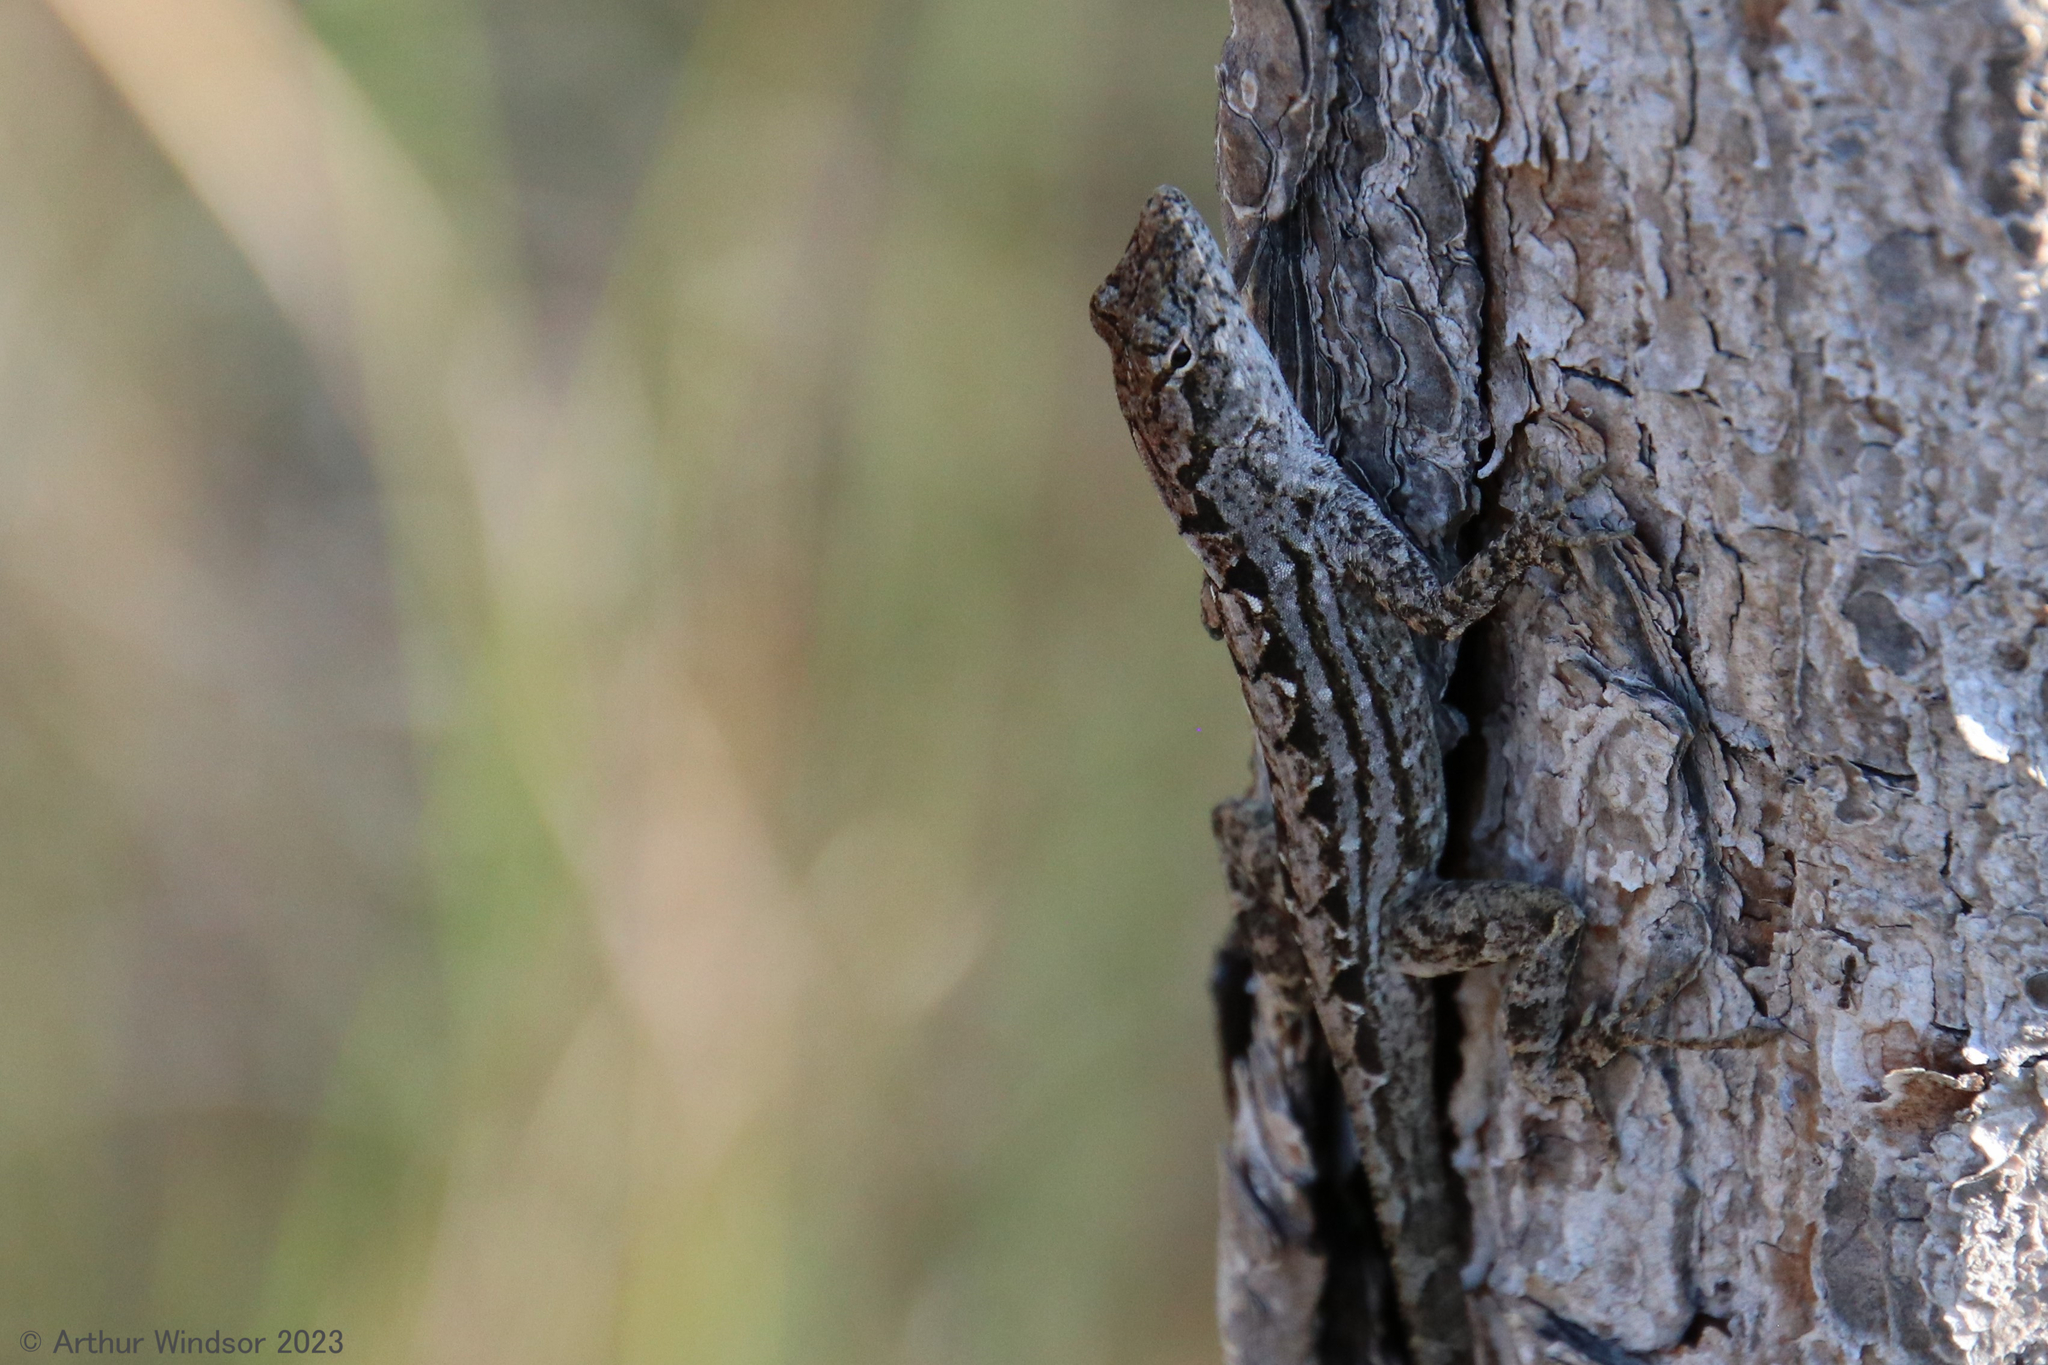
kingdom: Animalia
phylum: Chordata
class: Squamata
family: Dactyloidae
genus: Anolis
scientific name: Anolis sagrei
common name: Brown anole
